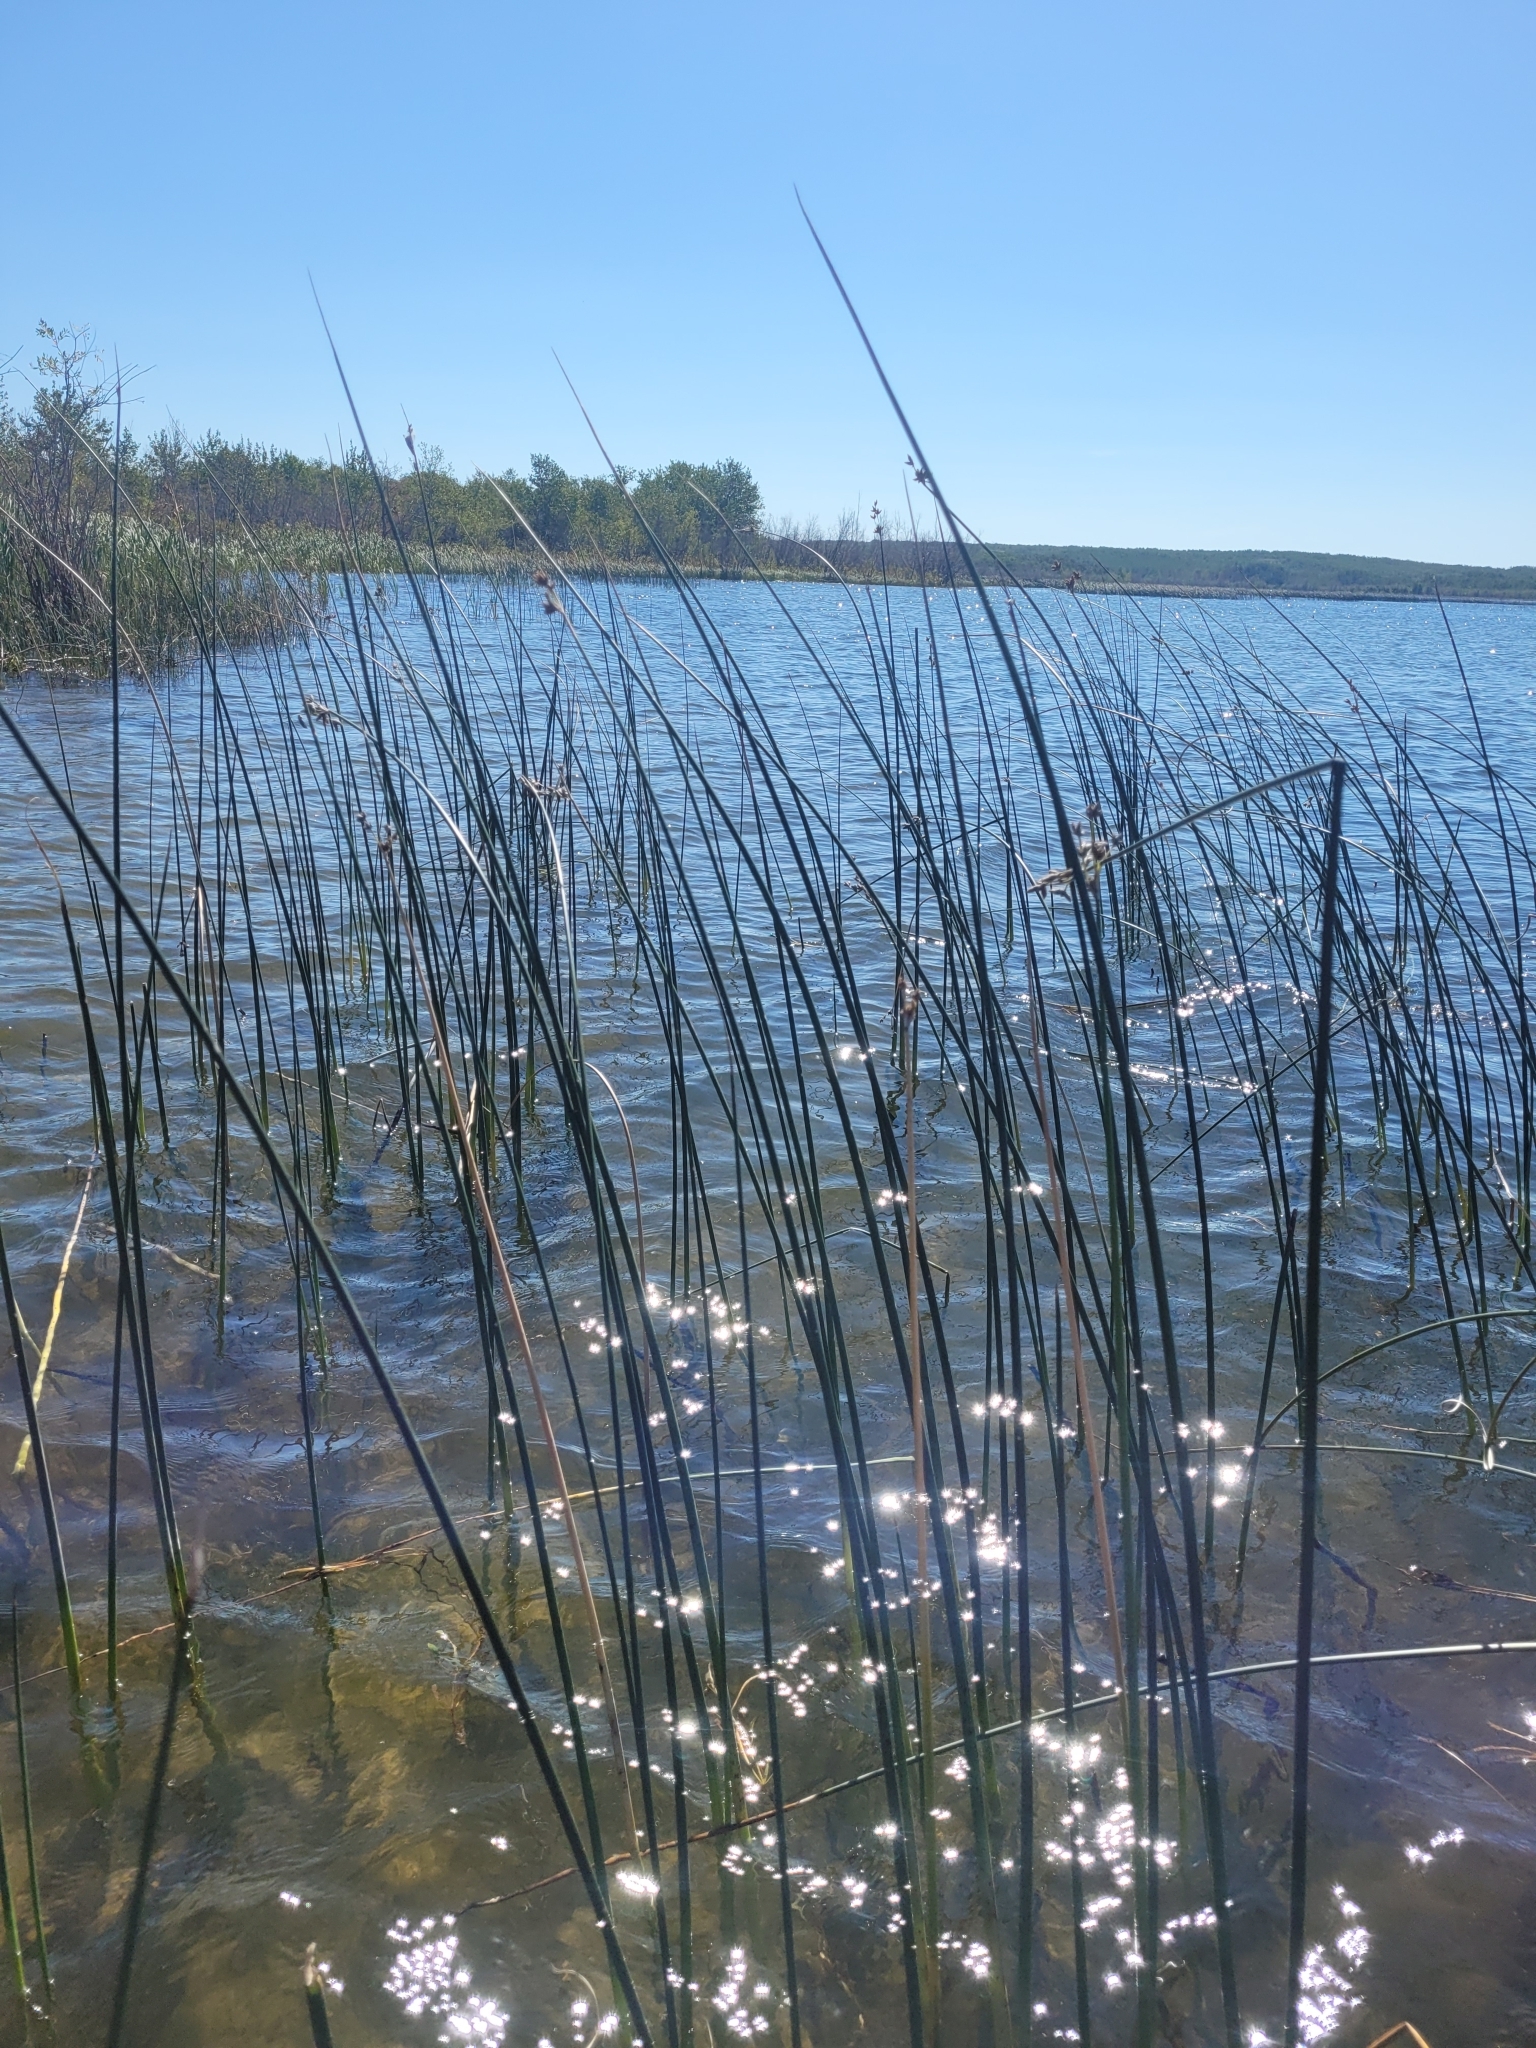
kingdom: Plantae
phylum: Tracheophyta
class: Liliopsida
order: Poales
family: Cyperaceae
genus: Schoenoplectus
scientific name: Schoenoplectus acutus
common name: Hardstem bulrush
